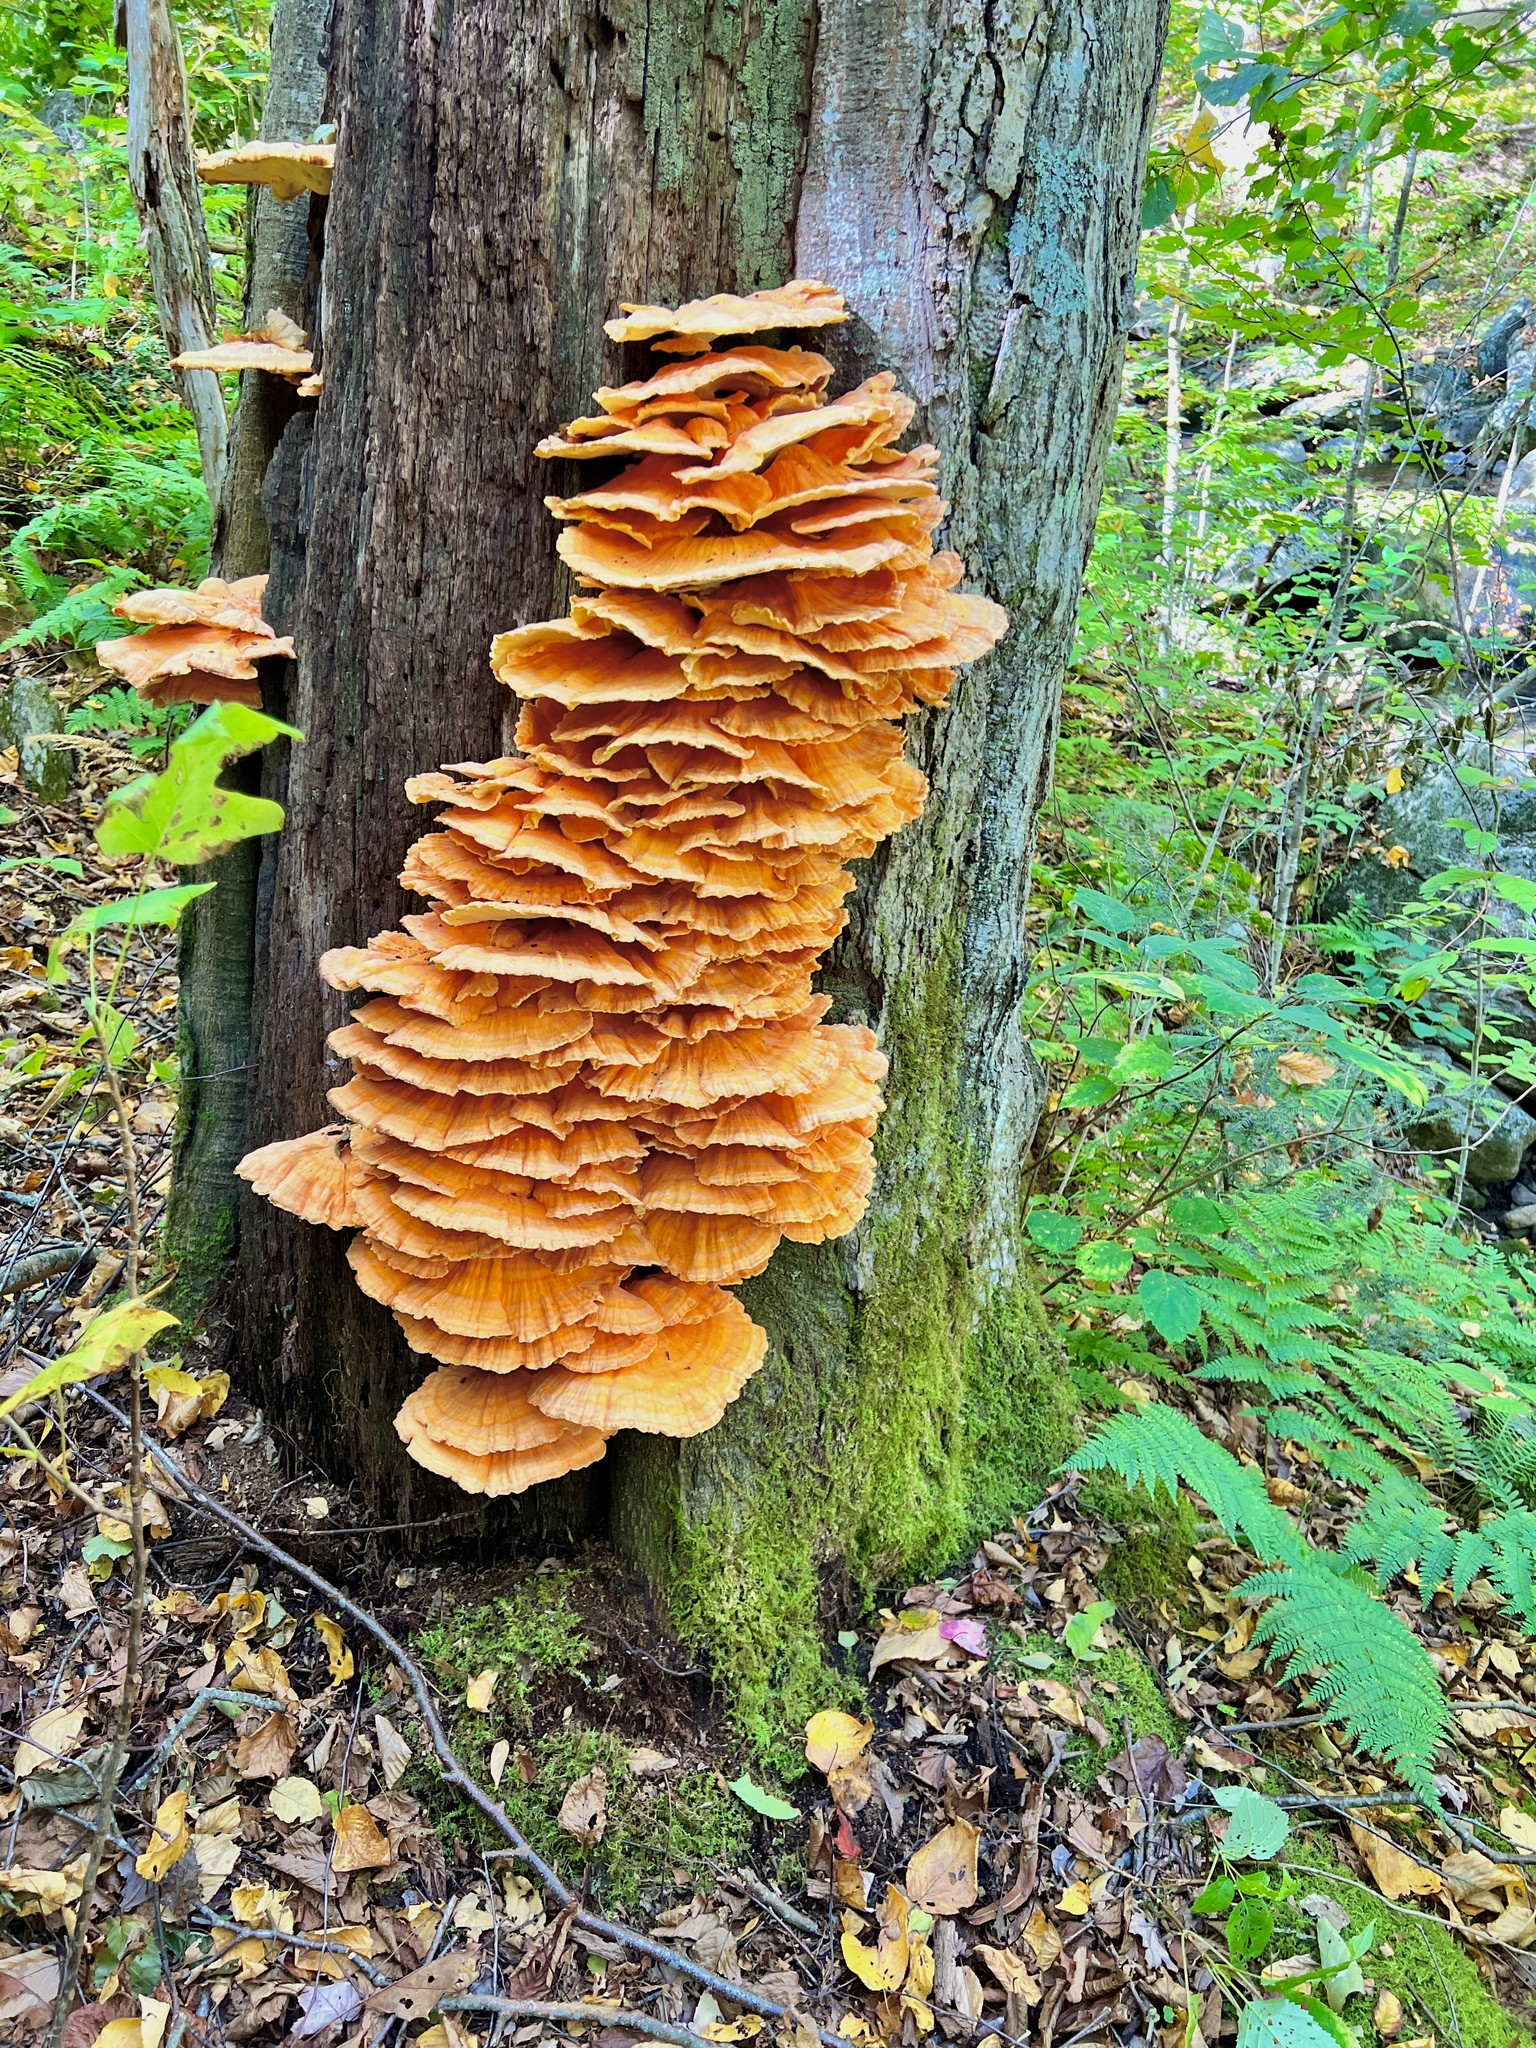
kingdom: Fungi
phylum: Basidiomycota
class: Agaricomycetes
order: Polyporales
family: Laetiporaceae
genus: Laetiporus
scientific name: Laetiporus sulphureus
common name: Chicken of the woods
